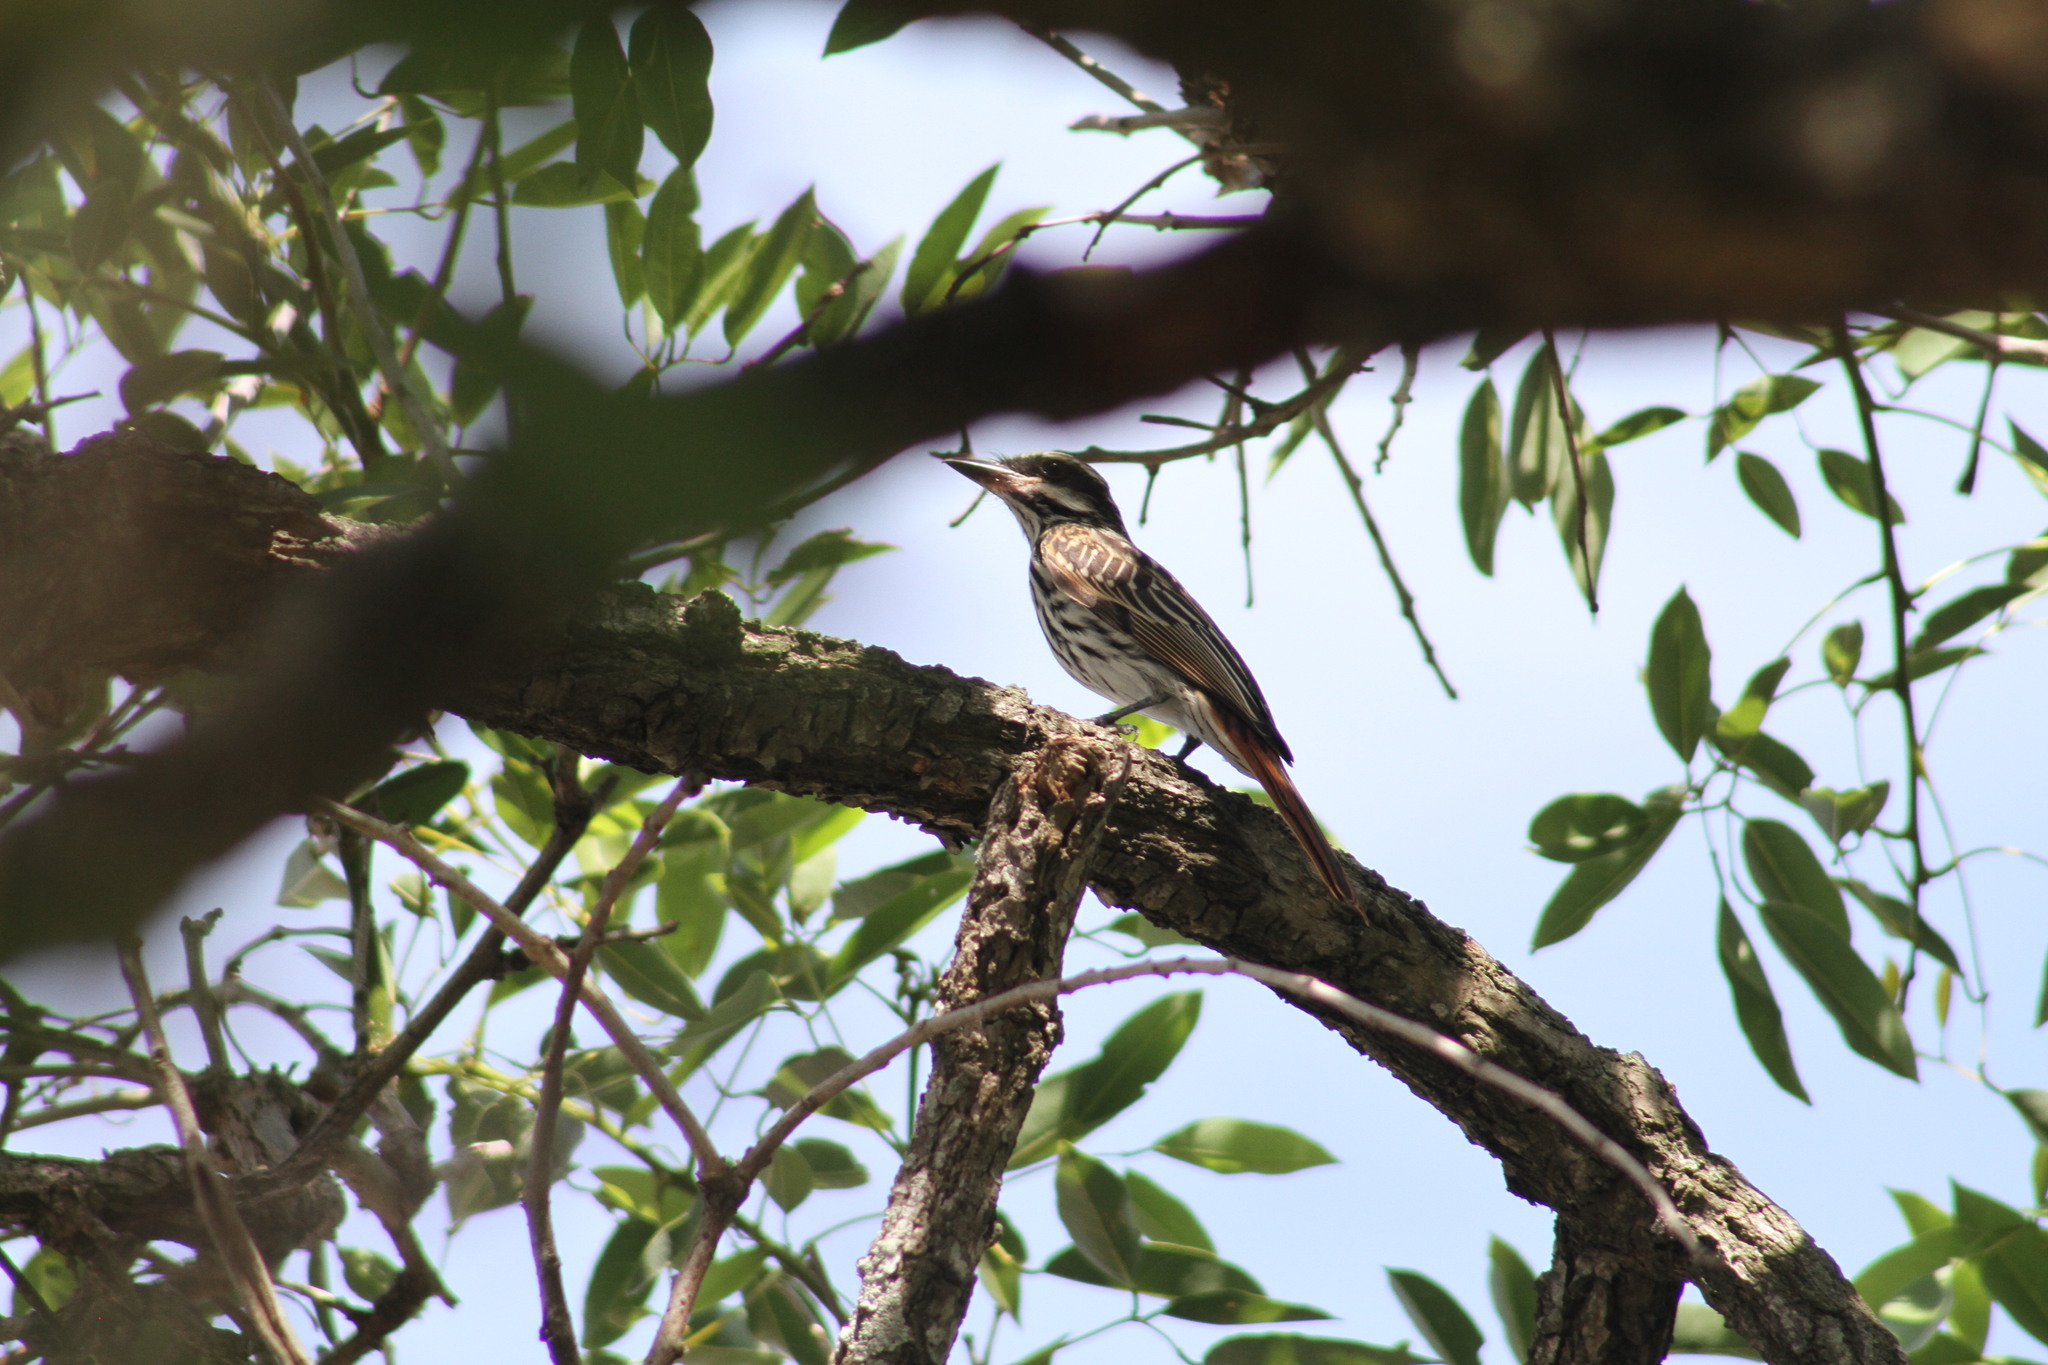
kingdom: Animalia
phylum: Chordata
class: Aves
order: Passeriformes
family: Tyrannidae
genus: Myiodynastes
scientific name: Myiodynastes maculatus
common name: Streaked flycatcher
